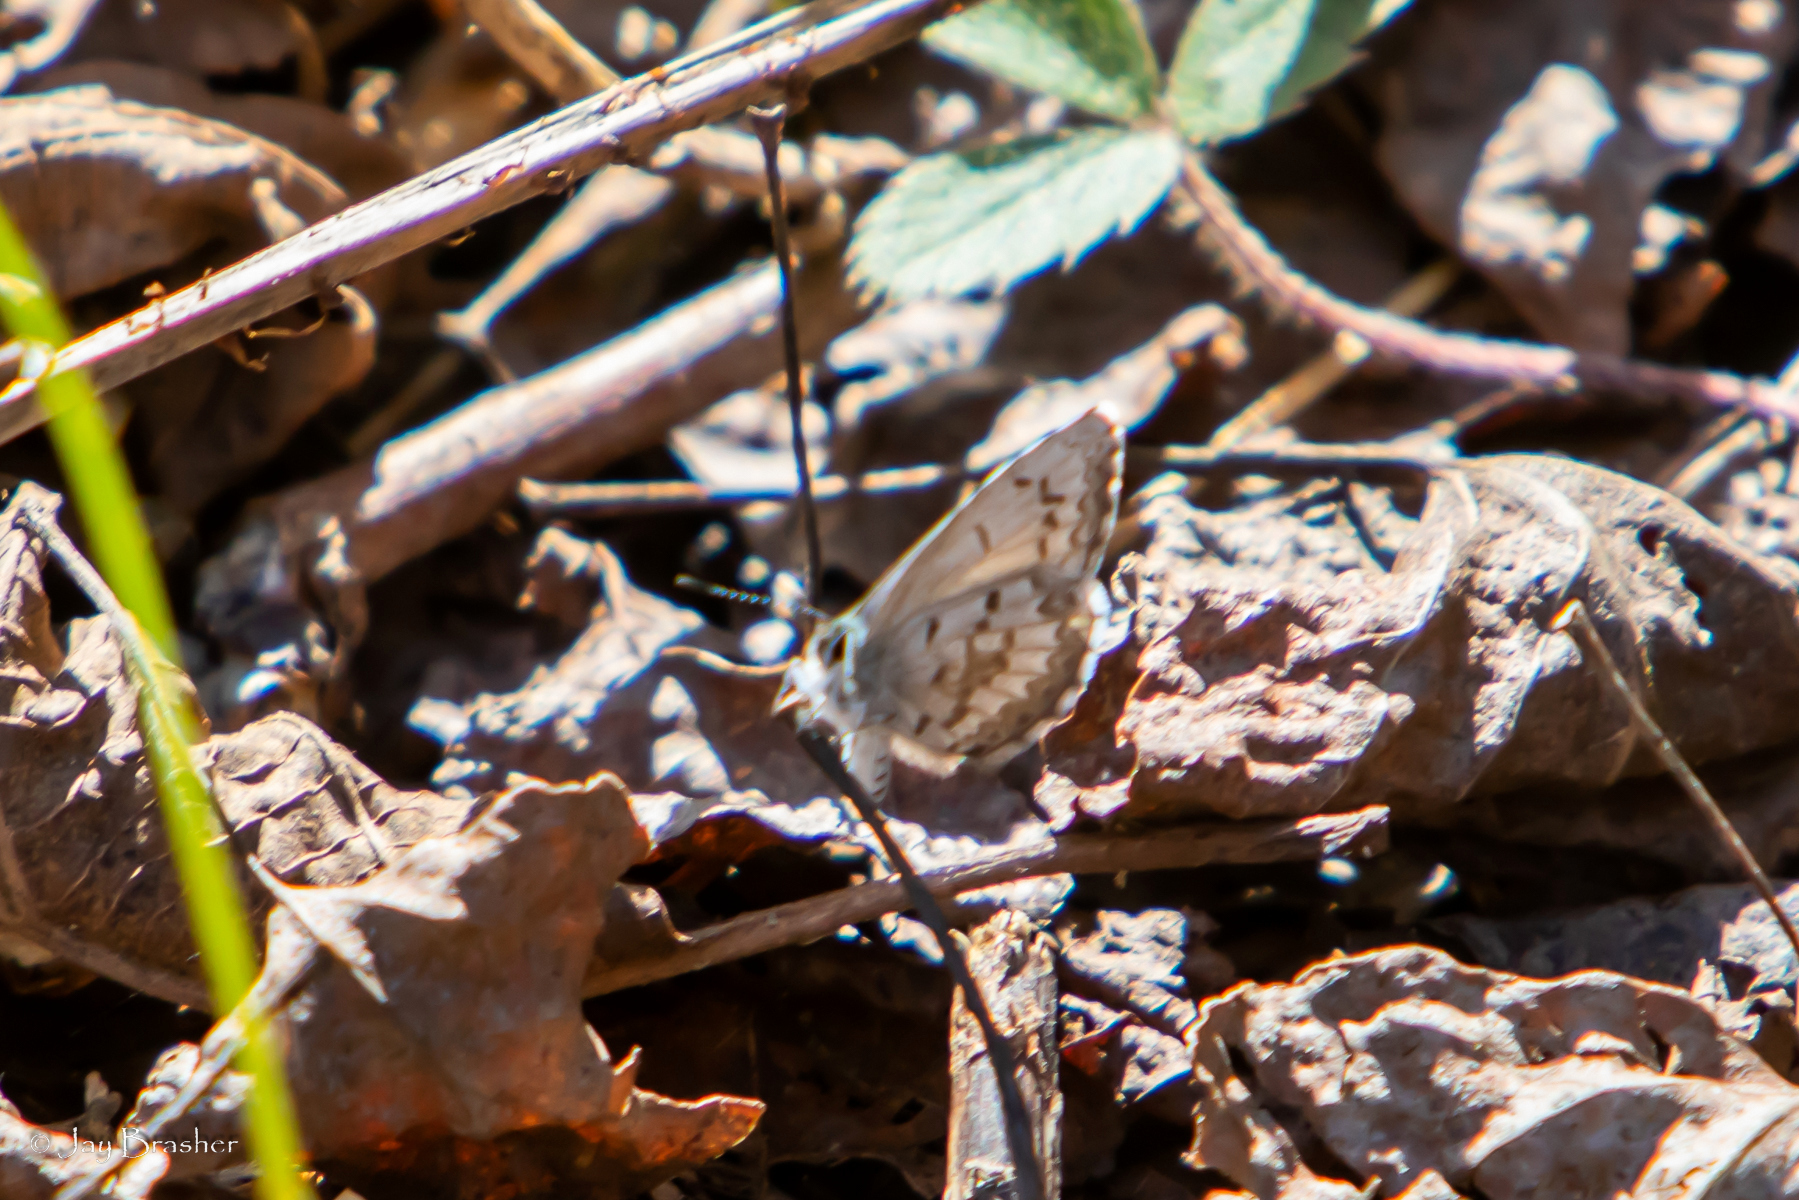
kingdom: Animalia
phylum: Arthropoda
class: Insecta
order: Lepidoptera
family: Lycaenidae
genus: Celastrina
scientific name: Celastrina lucia
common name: Lucia azure
